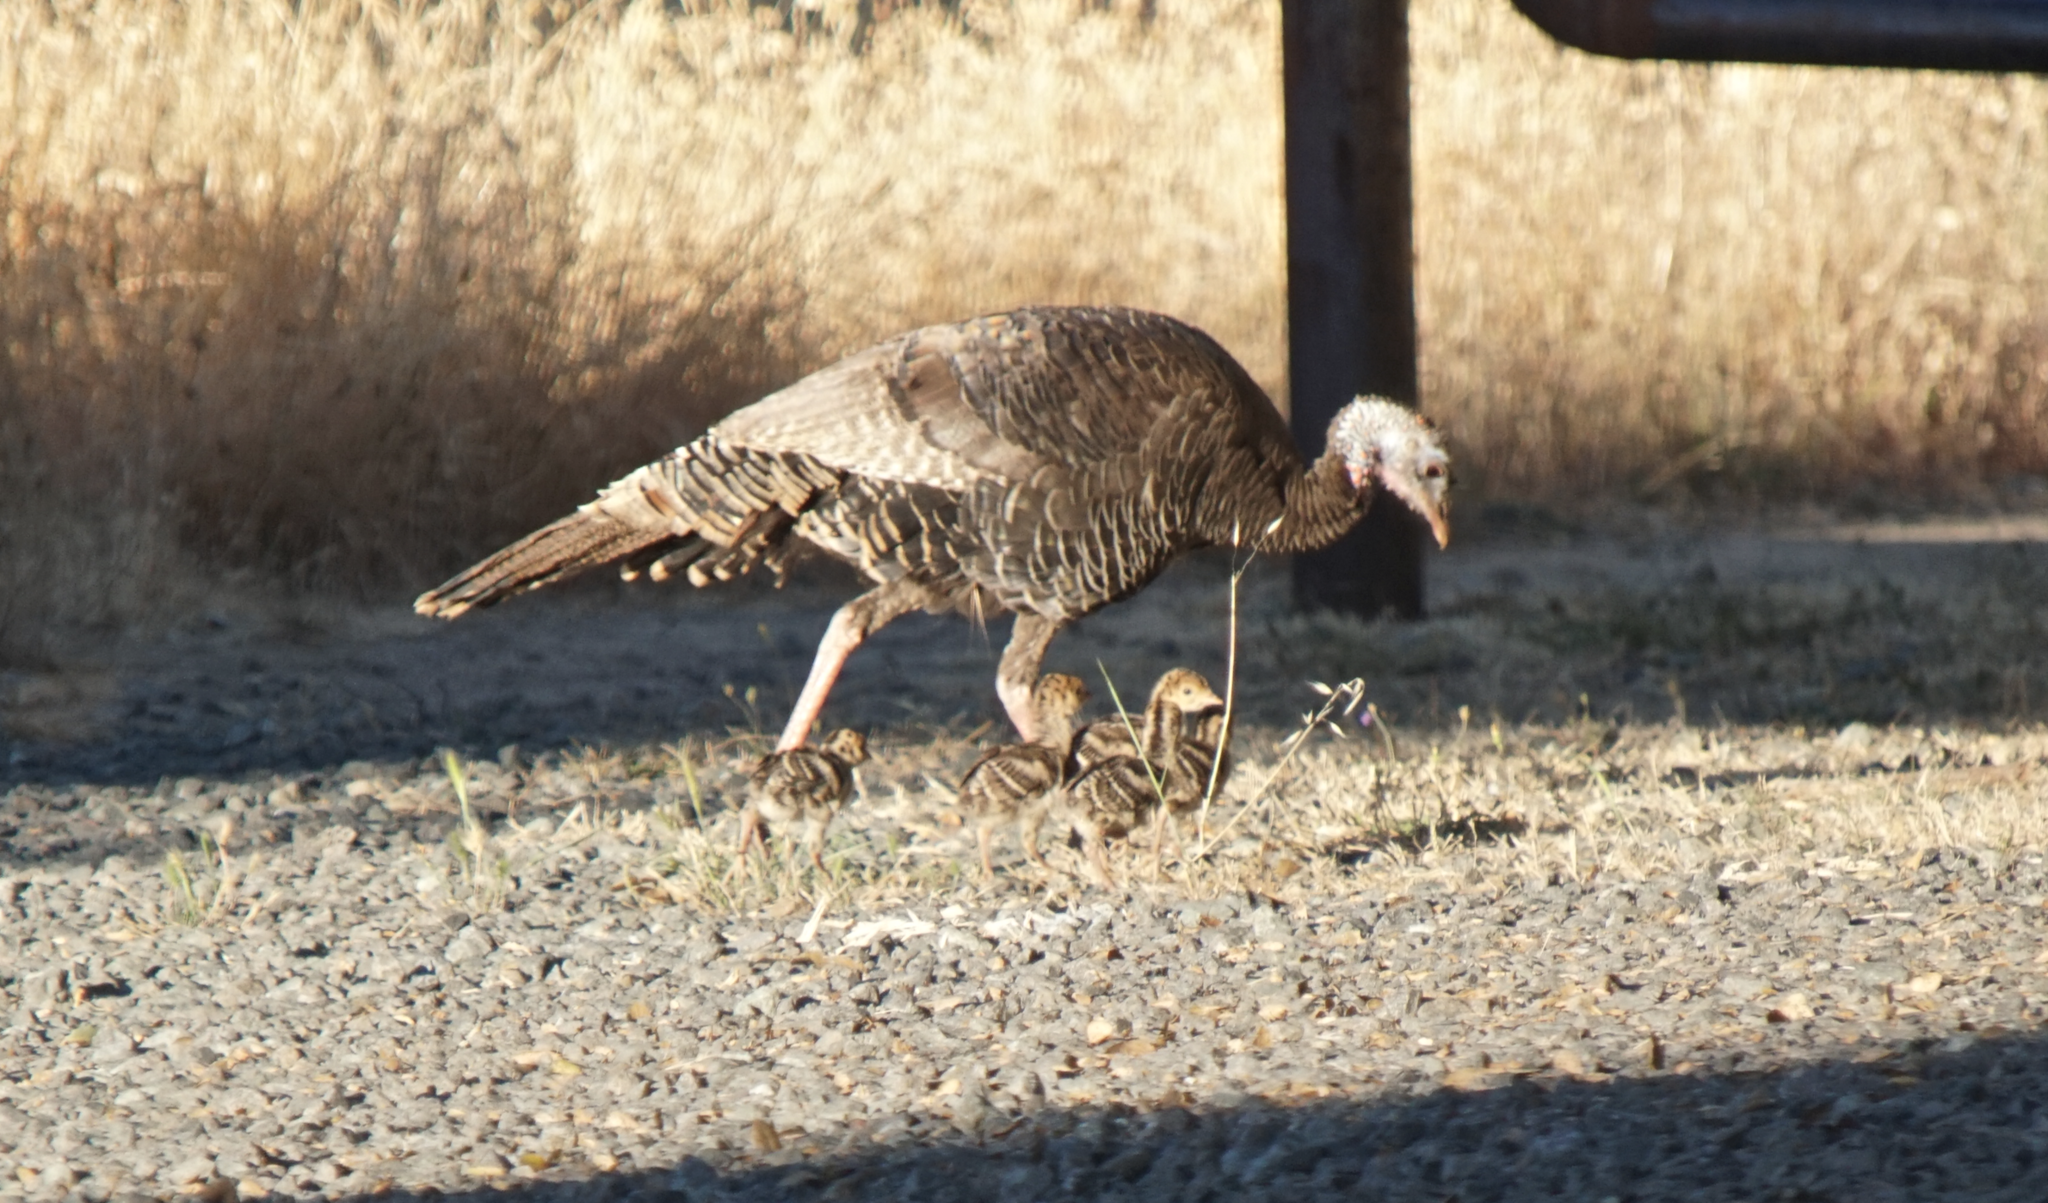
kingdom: Animalia
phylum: Chordata
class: Aves
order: Galliformes
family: Phasianidae
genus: Meleagris
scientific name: Meleagris gallopavo
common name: Wild turkey
